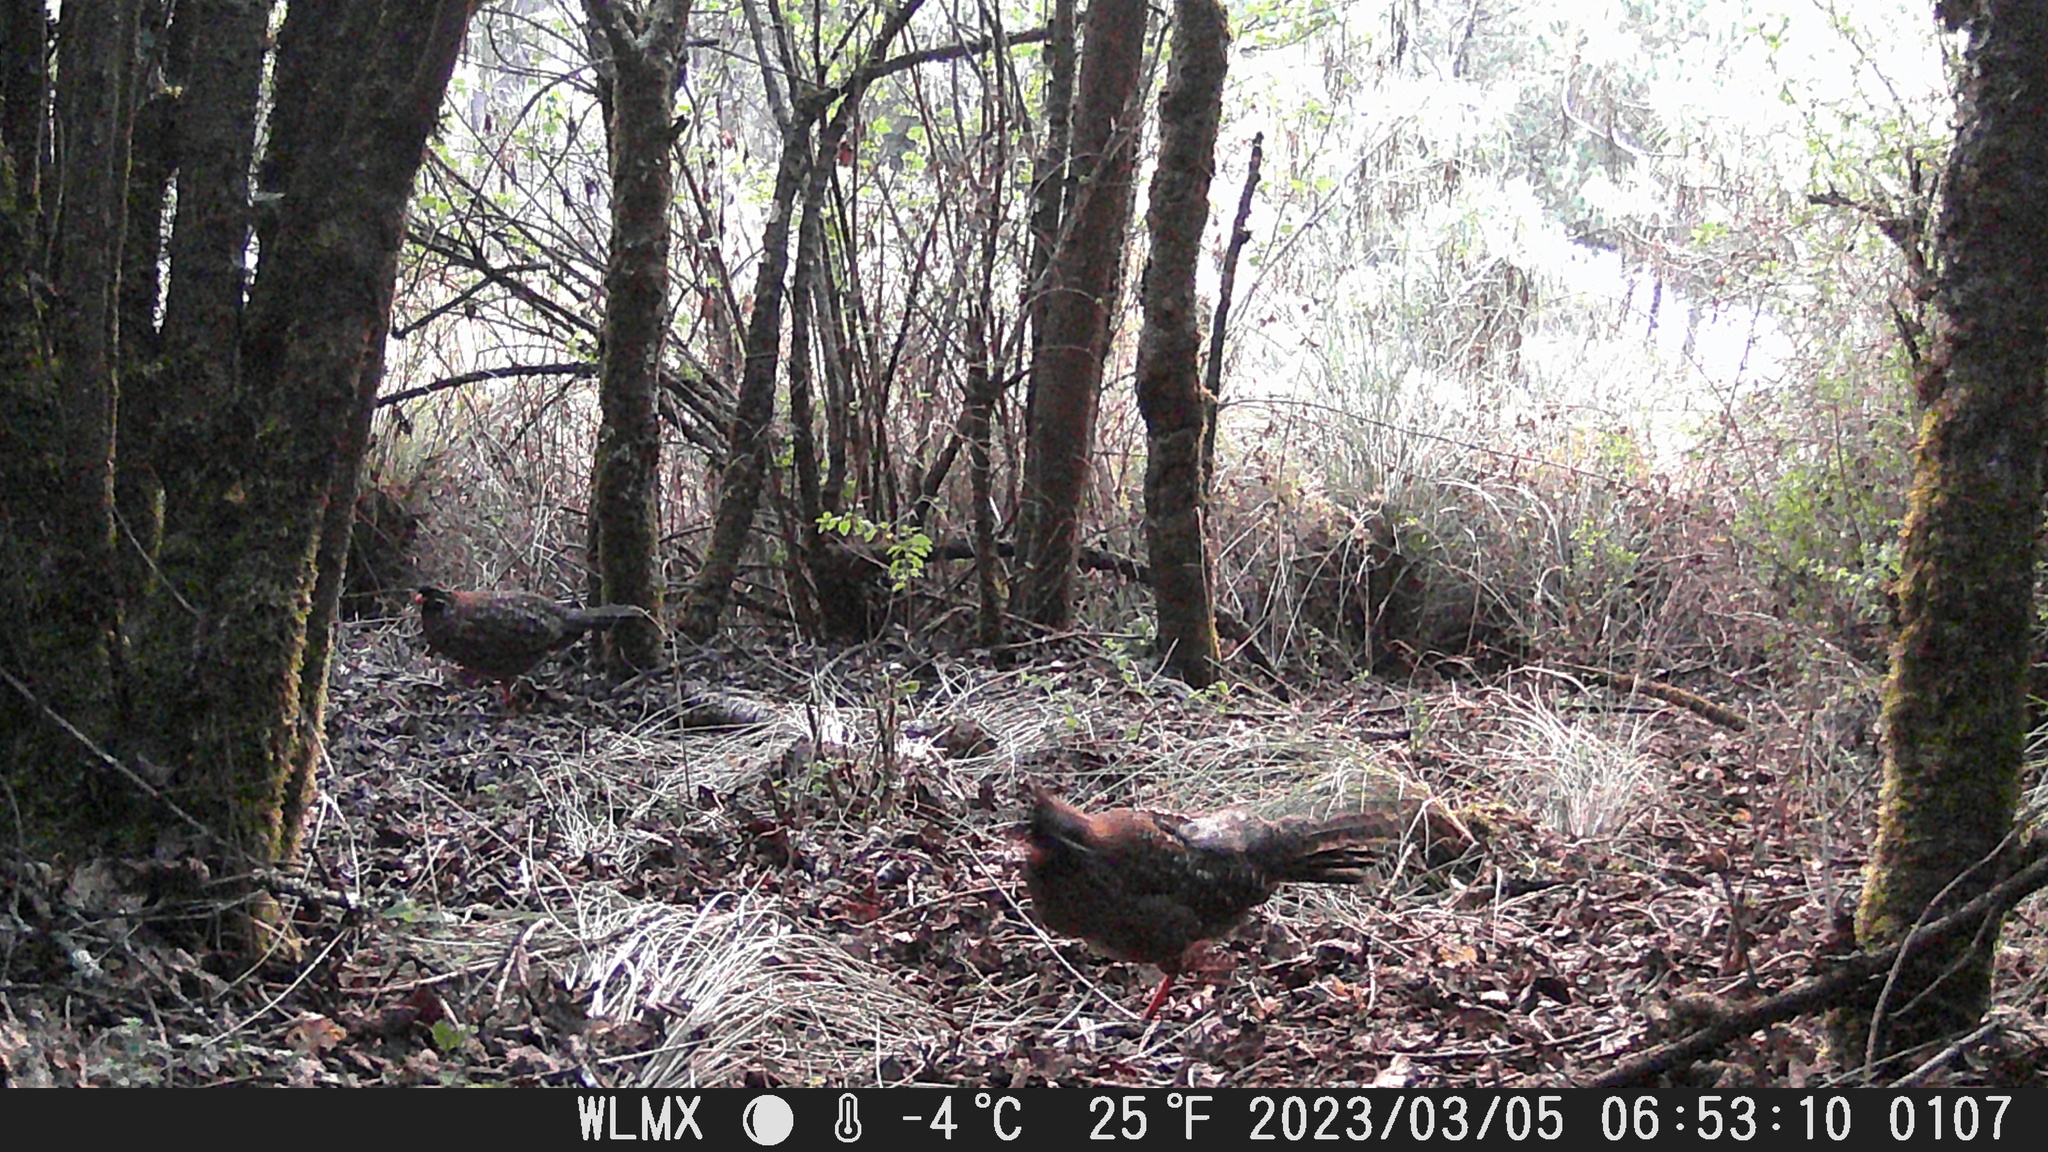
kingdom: Animalia
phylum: Chordata
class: Aves
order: Galliformes
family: Odontophoridae
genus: Dendrortyx
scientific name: Dendrortyx macroura
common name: Long-tailed wood-partridge
